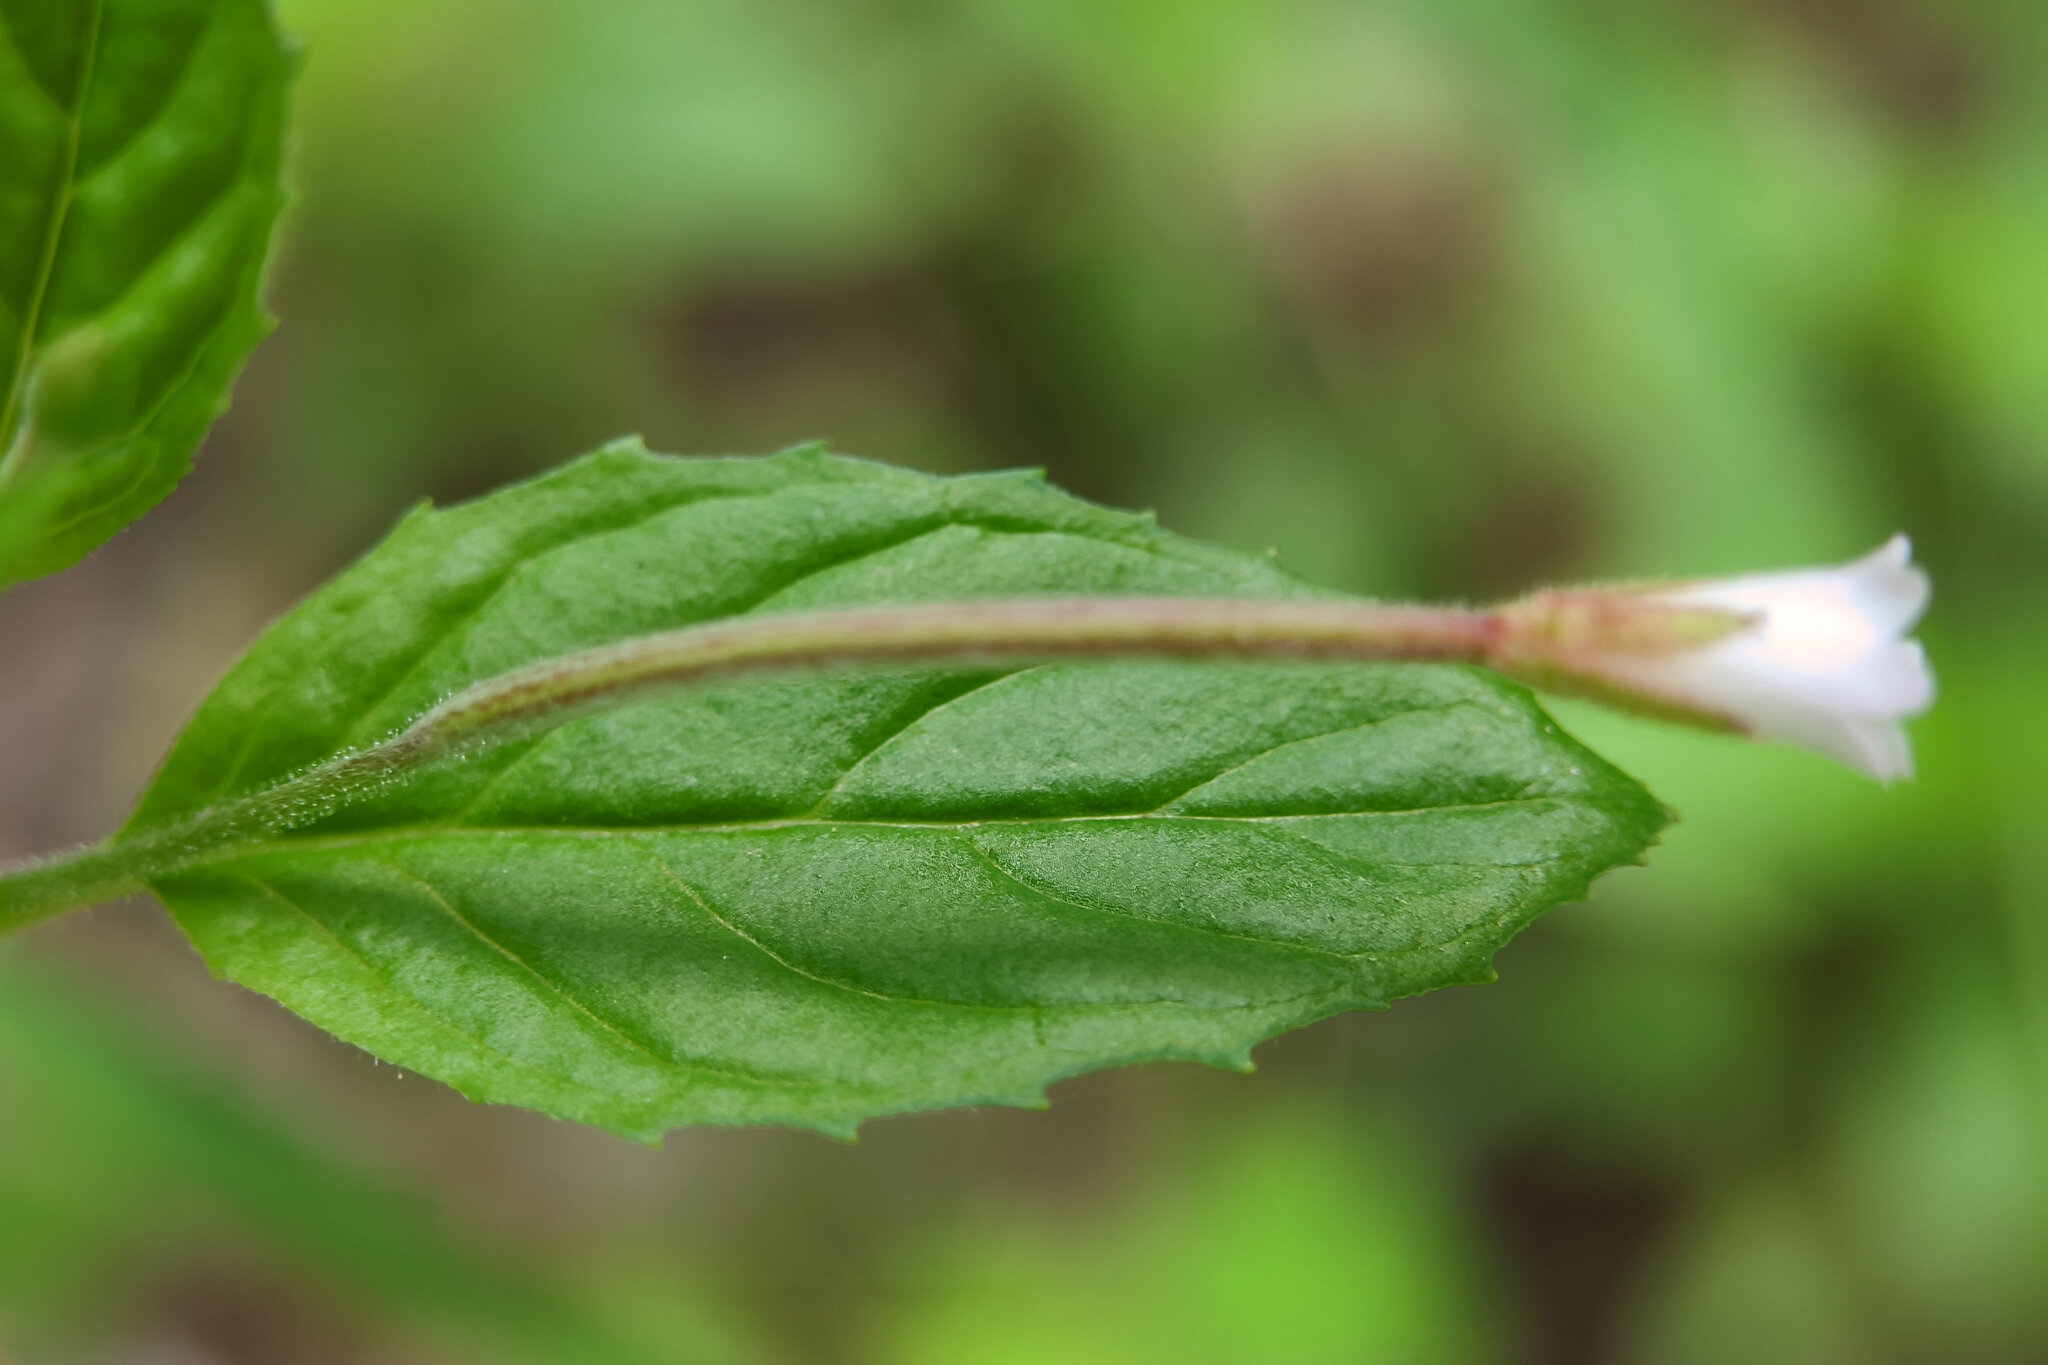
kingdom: Plantae
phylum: Tracheophyta
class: Magnoliopsida
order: Myrtales
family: Onagraceae
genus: Epilobium
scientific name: Epilobium roseum
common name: Pale willowherb
